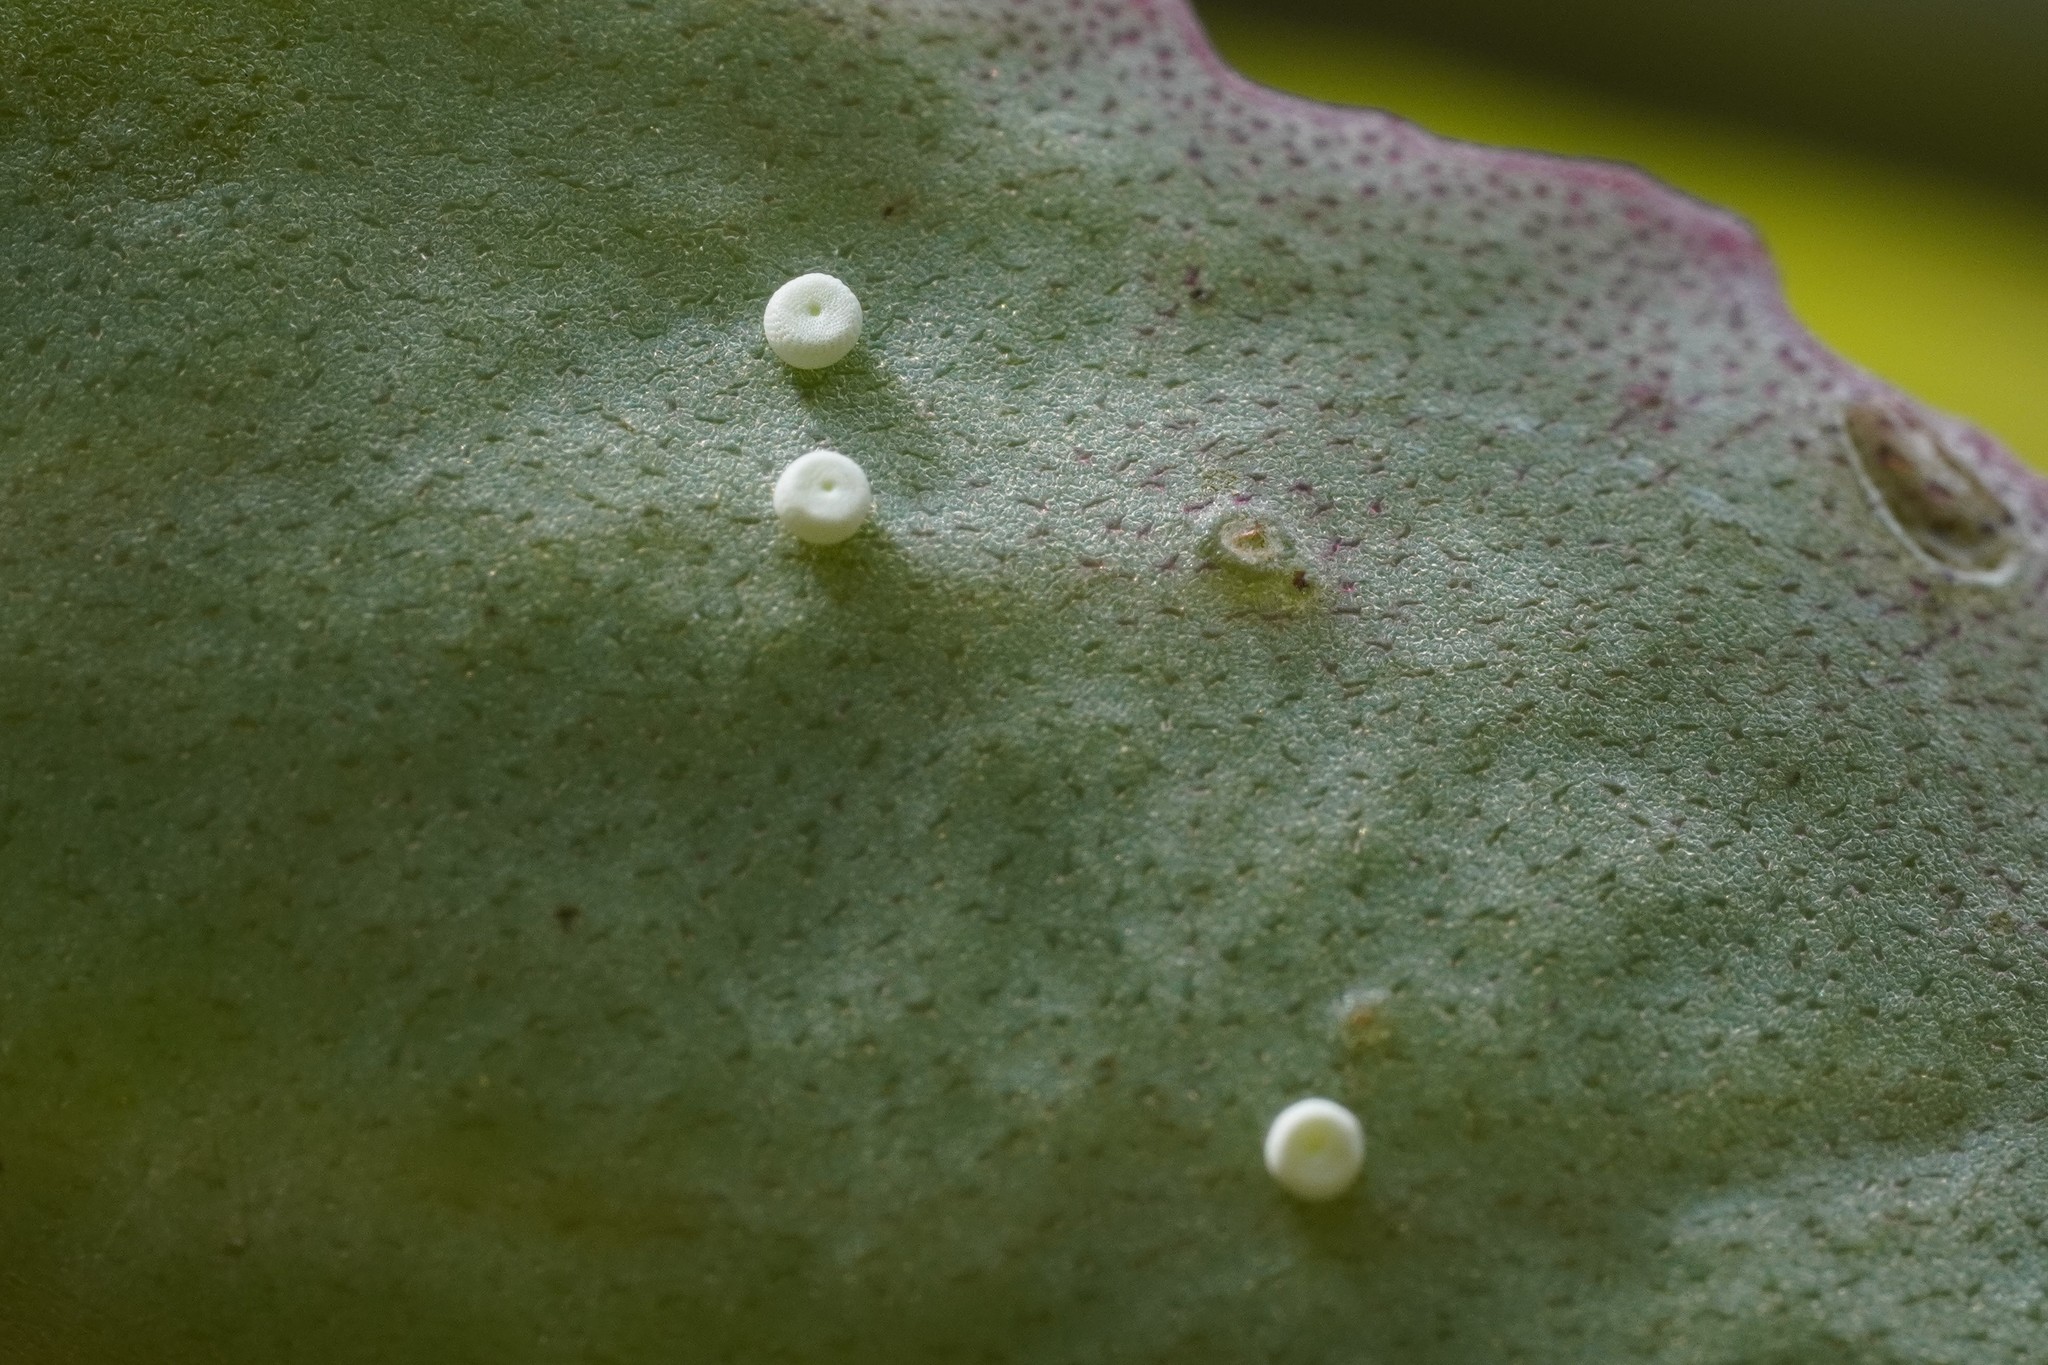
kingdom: Animalia
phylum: Arthropoda
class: Insecta
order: Lepidoptera
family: Lycaenidae
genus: Scolitantides
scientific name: Scolitantides orion
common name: Chequered blue
